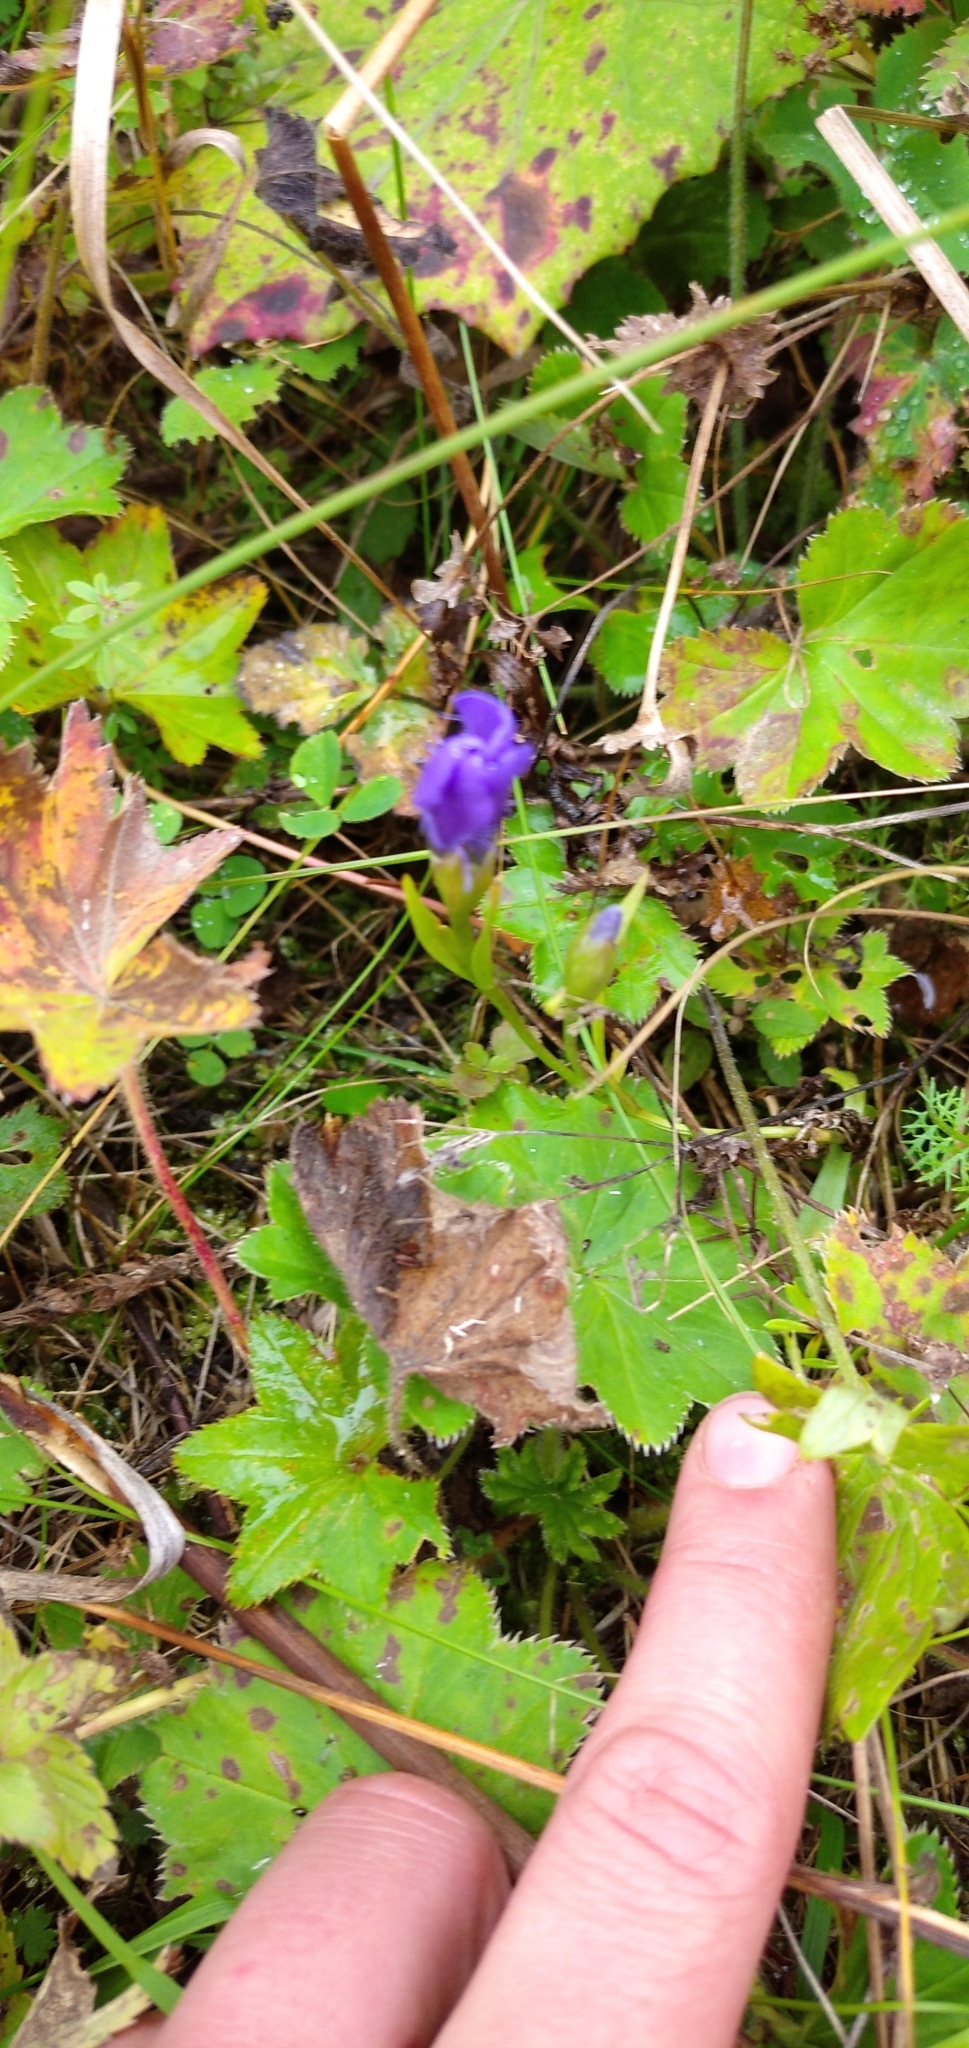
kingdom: Plantae
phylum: Tracheophyta
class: Magnoliopsida
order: Gentianales
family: Gentianaceae
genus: Gentianopsis
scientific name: Gentianopsis barbata
